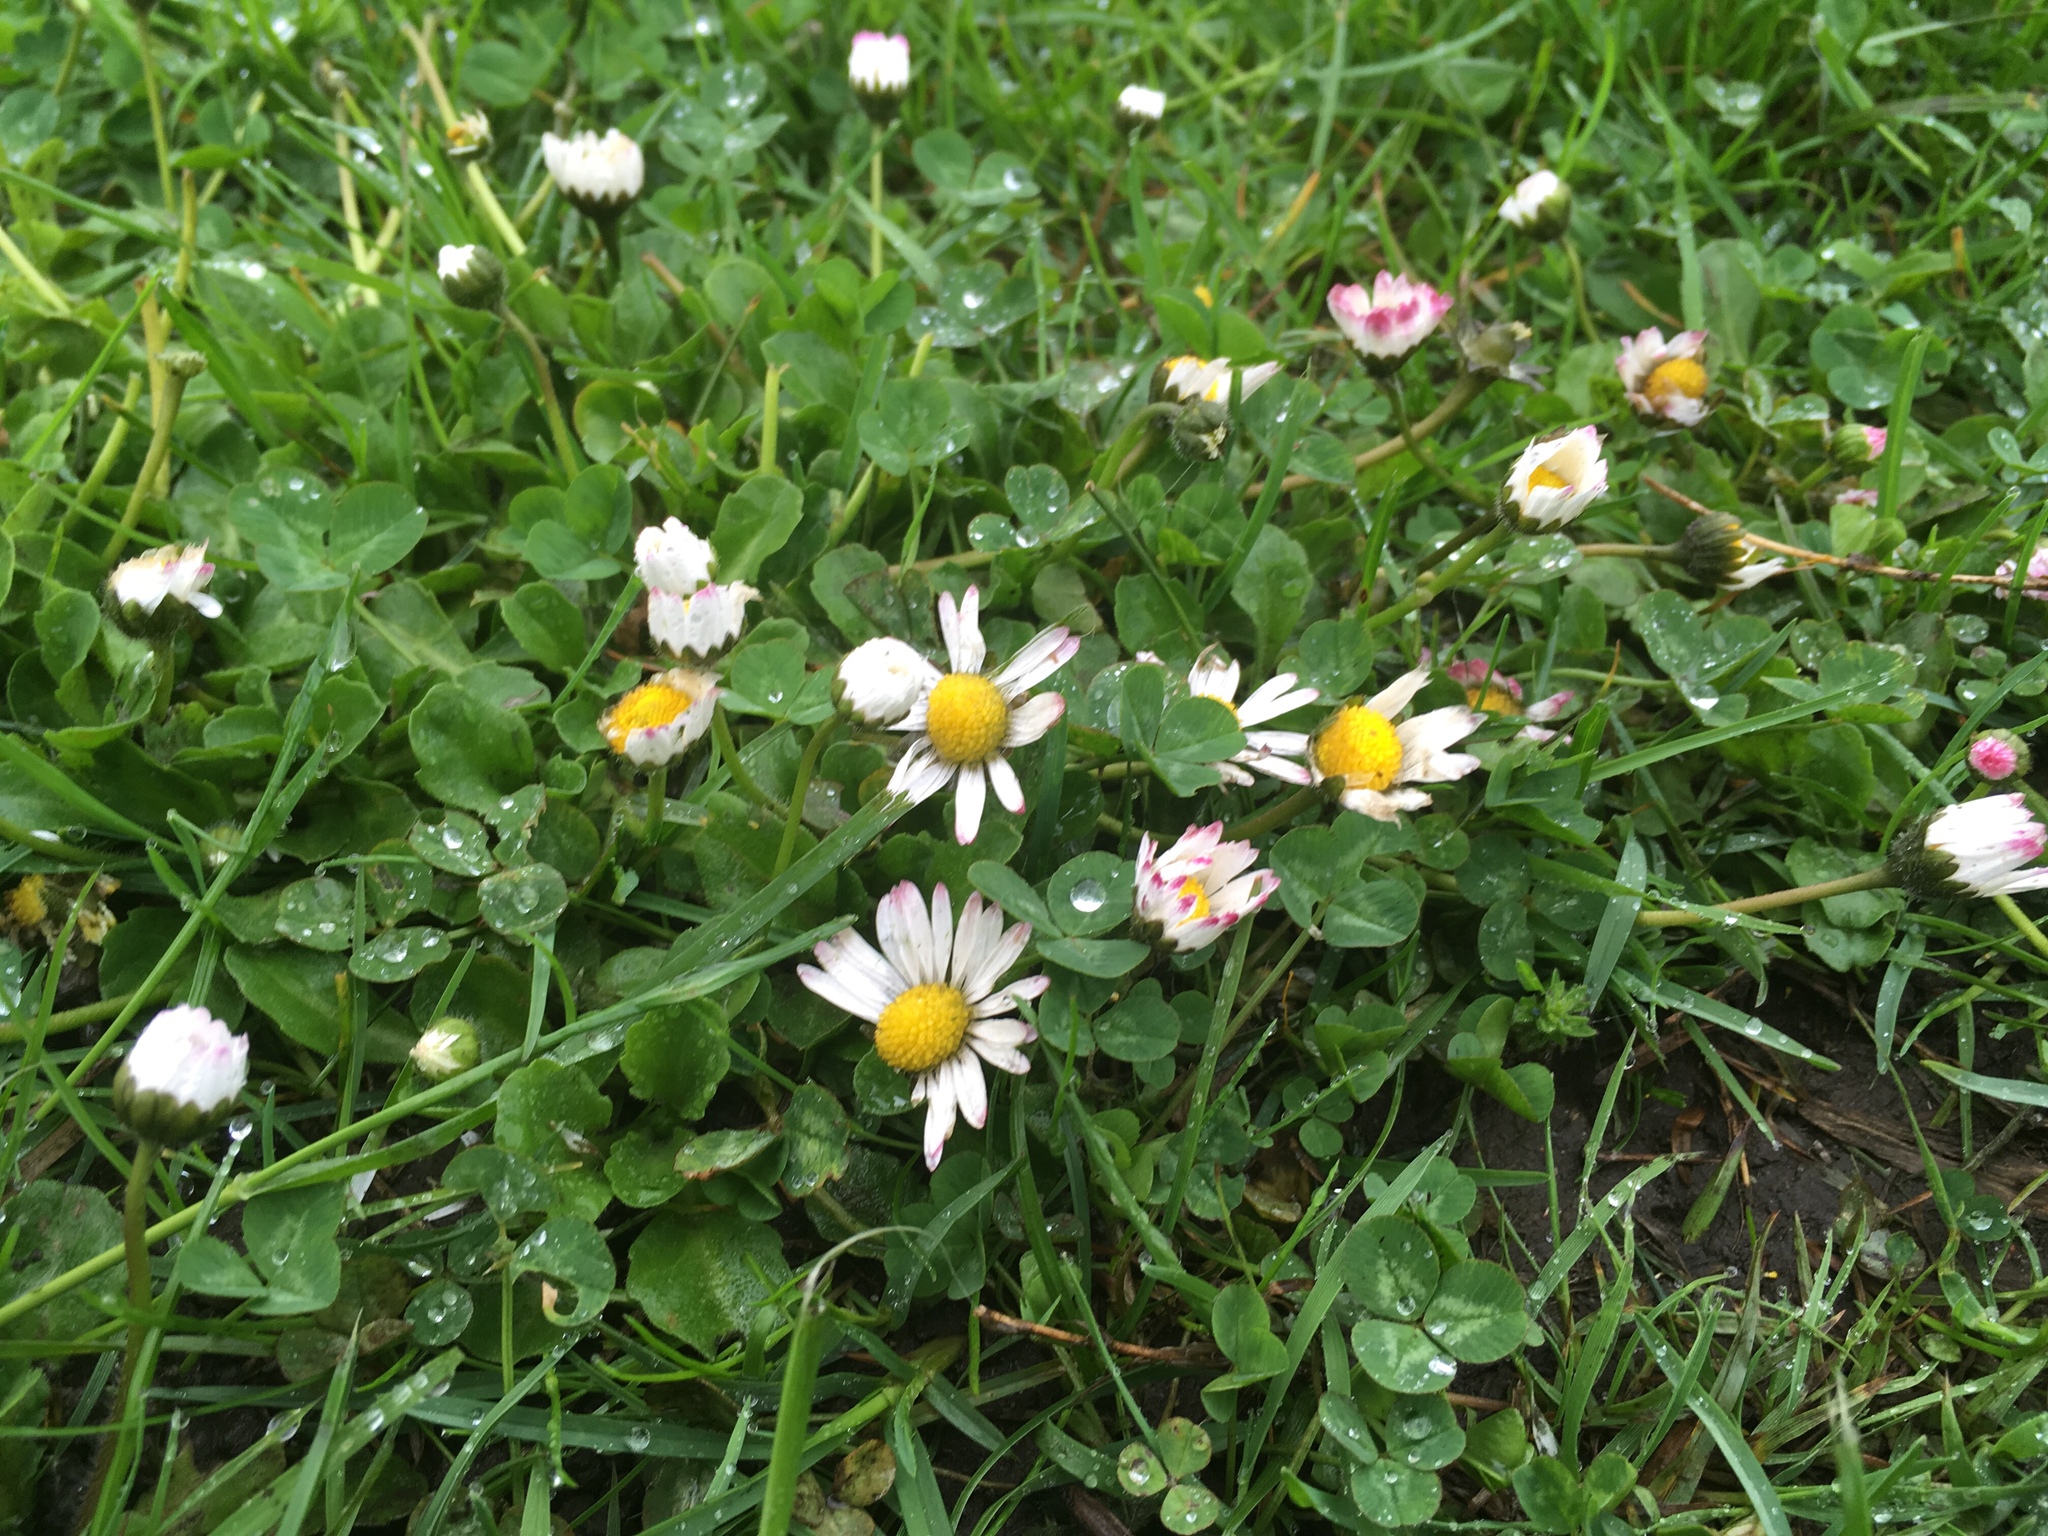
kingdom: Plantae
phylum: Tracheophyta
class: Magnoliopsida
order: Asterales
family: Asteraceae
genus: Bellis
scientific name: Bellis perennis
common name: Lawndaisy
